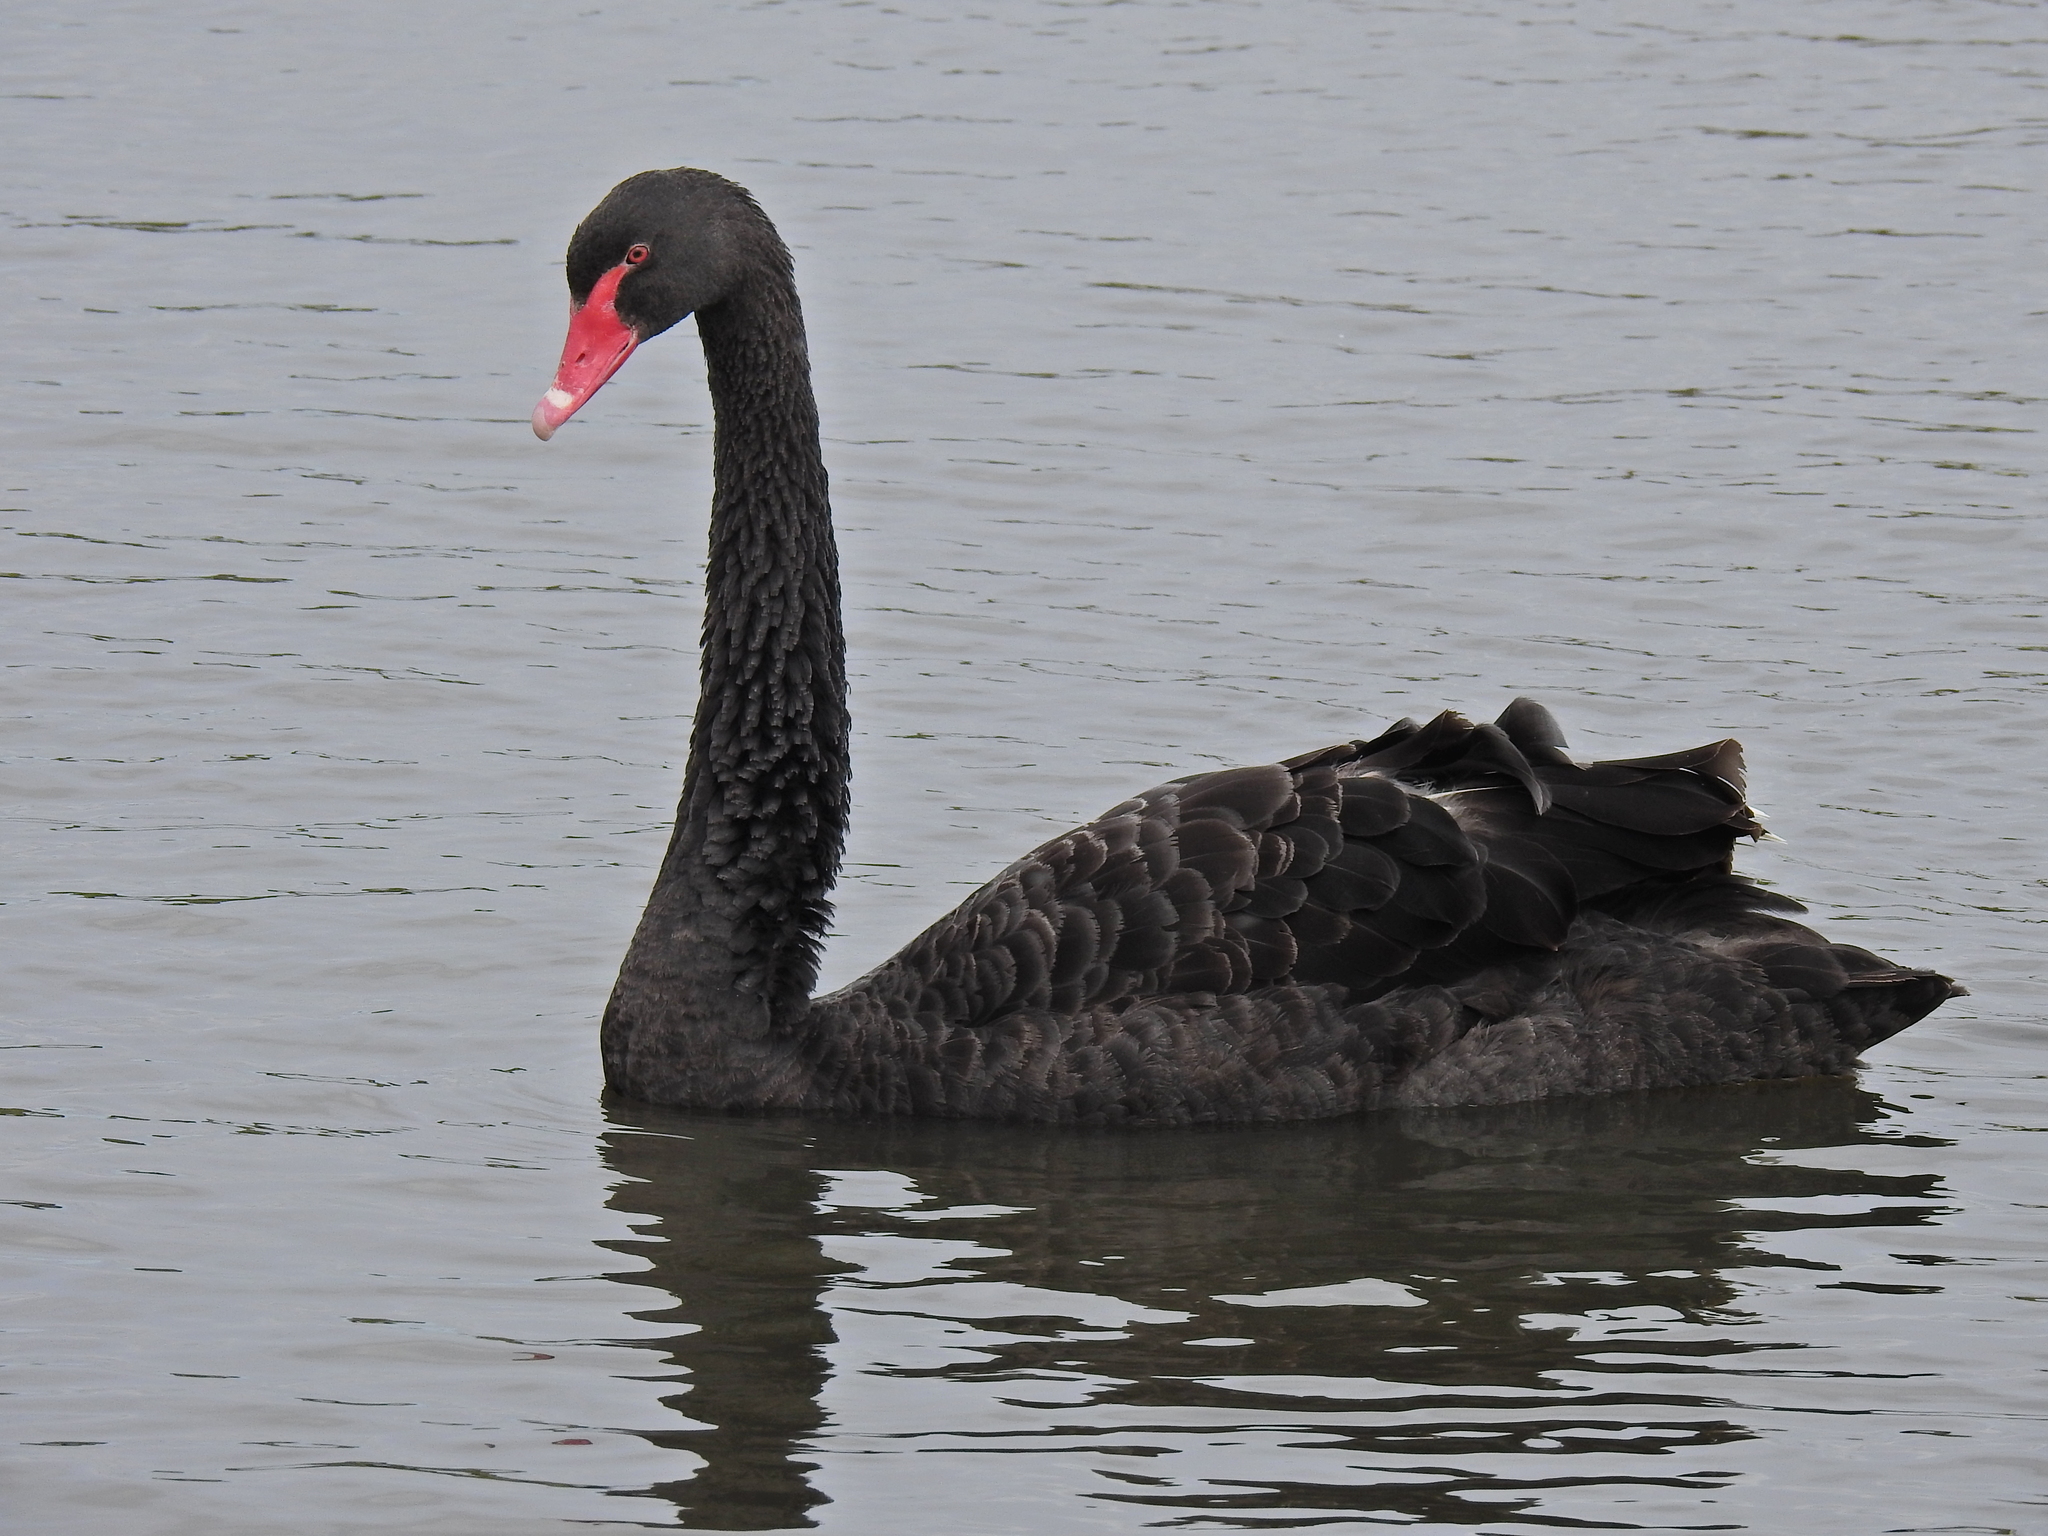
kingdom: Animalia
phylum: Chordata
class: Aves
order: Anseriformes
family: Anatidae
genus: Cygnus
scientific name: Cygnus atratus
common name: Black swan
